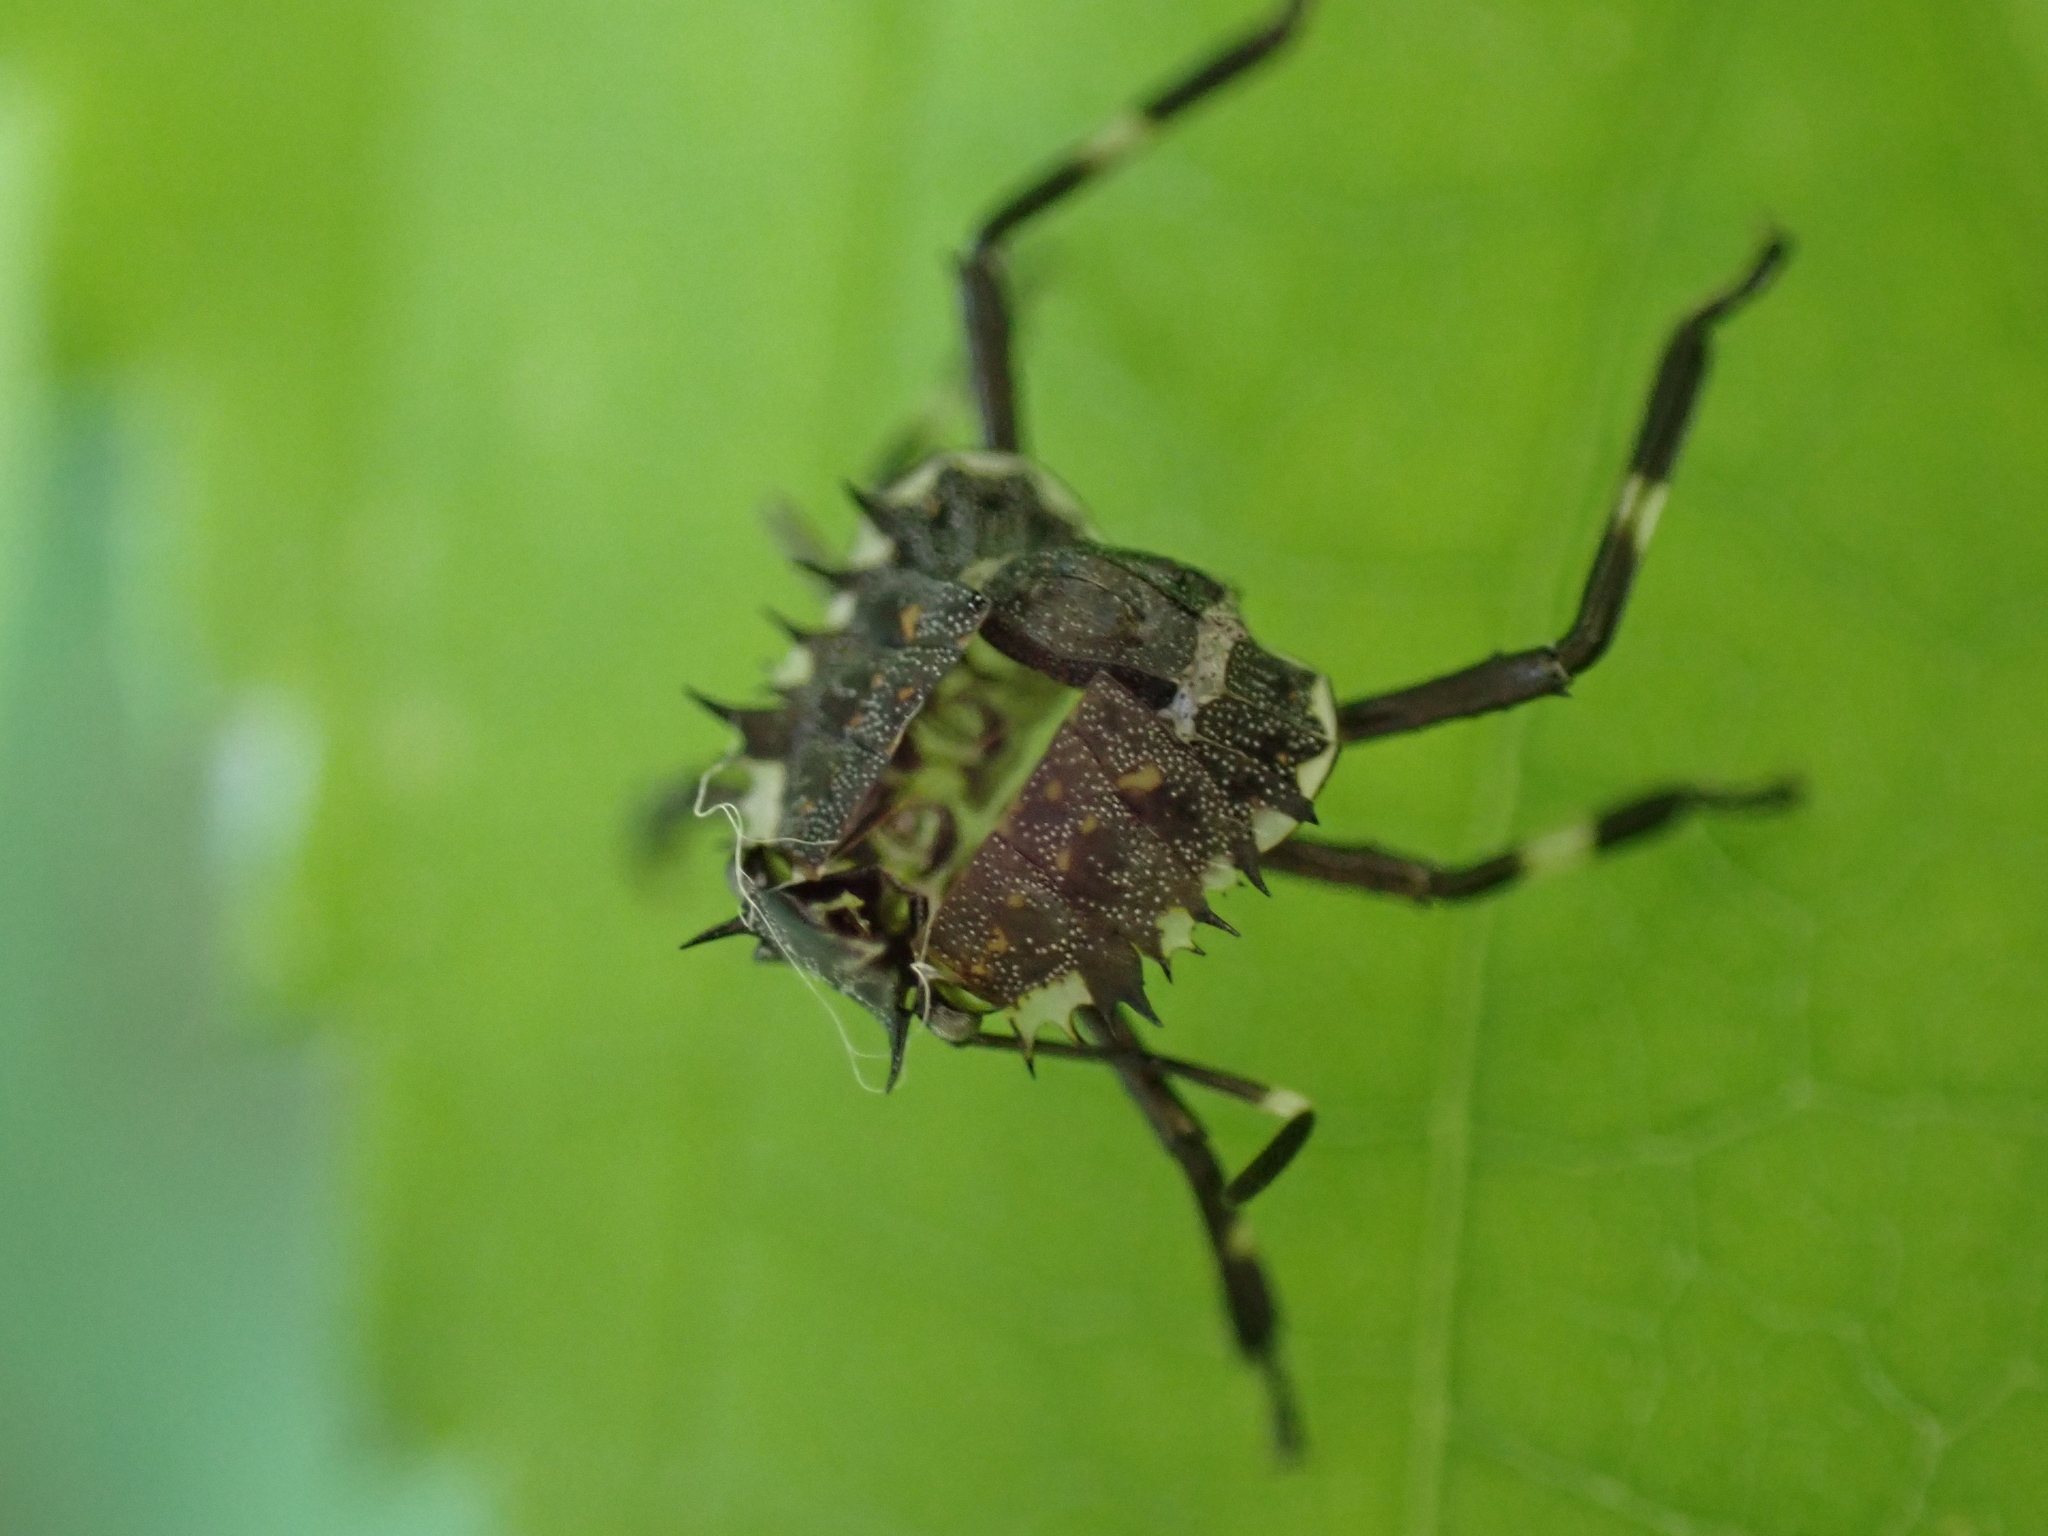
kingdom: Animalia
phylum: Arthropoda
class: Insecta
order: Hemiptera
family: Pentatomidae
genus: Halyomorpha
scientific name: Halyomorpha halys
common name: Brown marmorated stink bug
